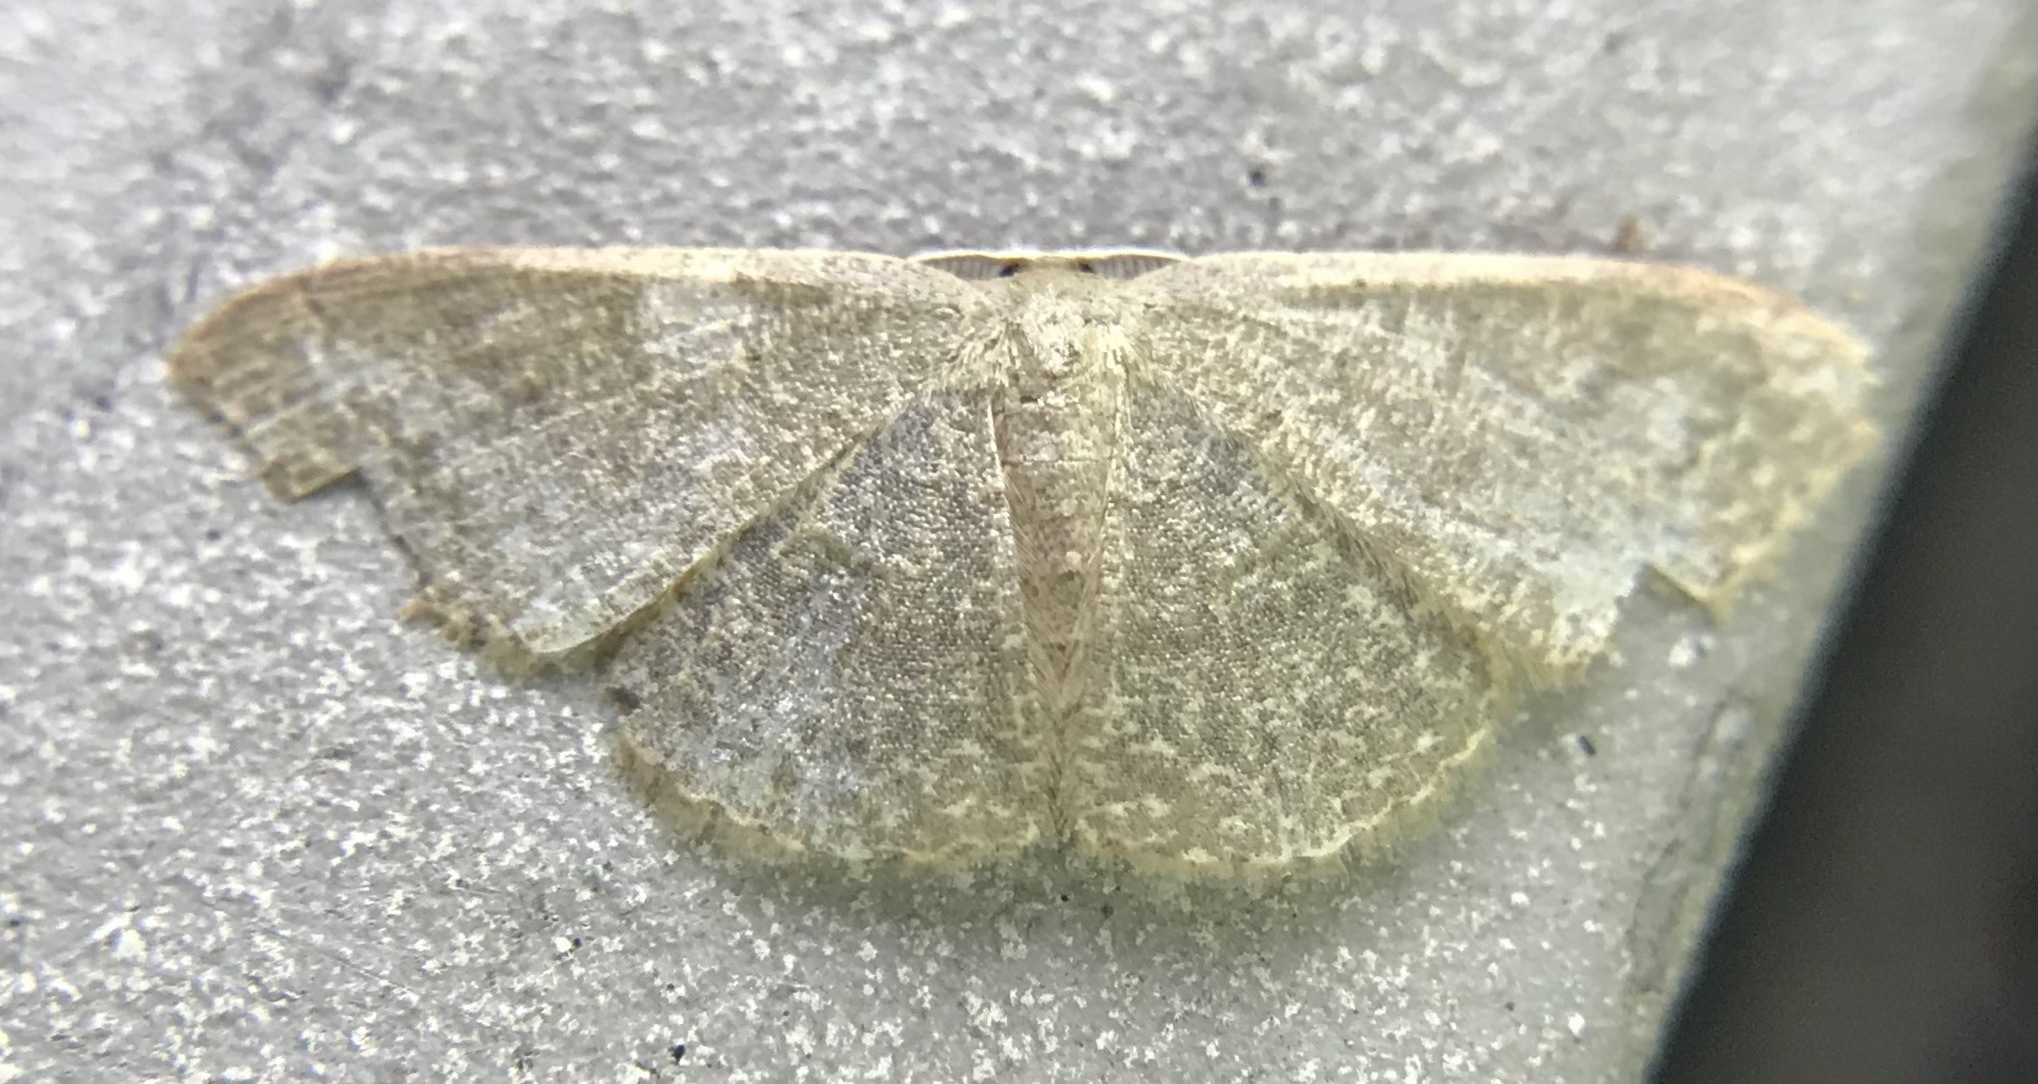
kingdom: Animalia
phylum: Arthropoda
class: Insecta
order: Lepidoptera
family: Geometridae
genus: Pleuroprucha
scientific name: Pleuroprucha insulsaria
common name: Common tan wave
